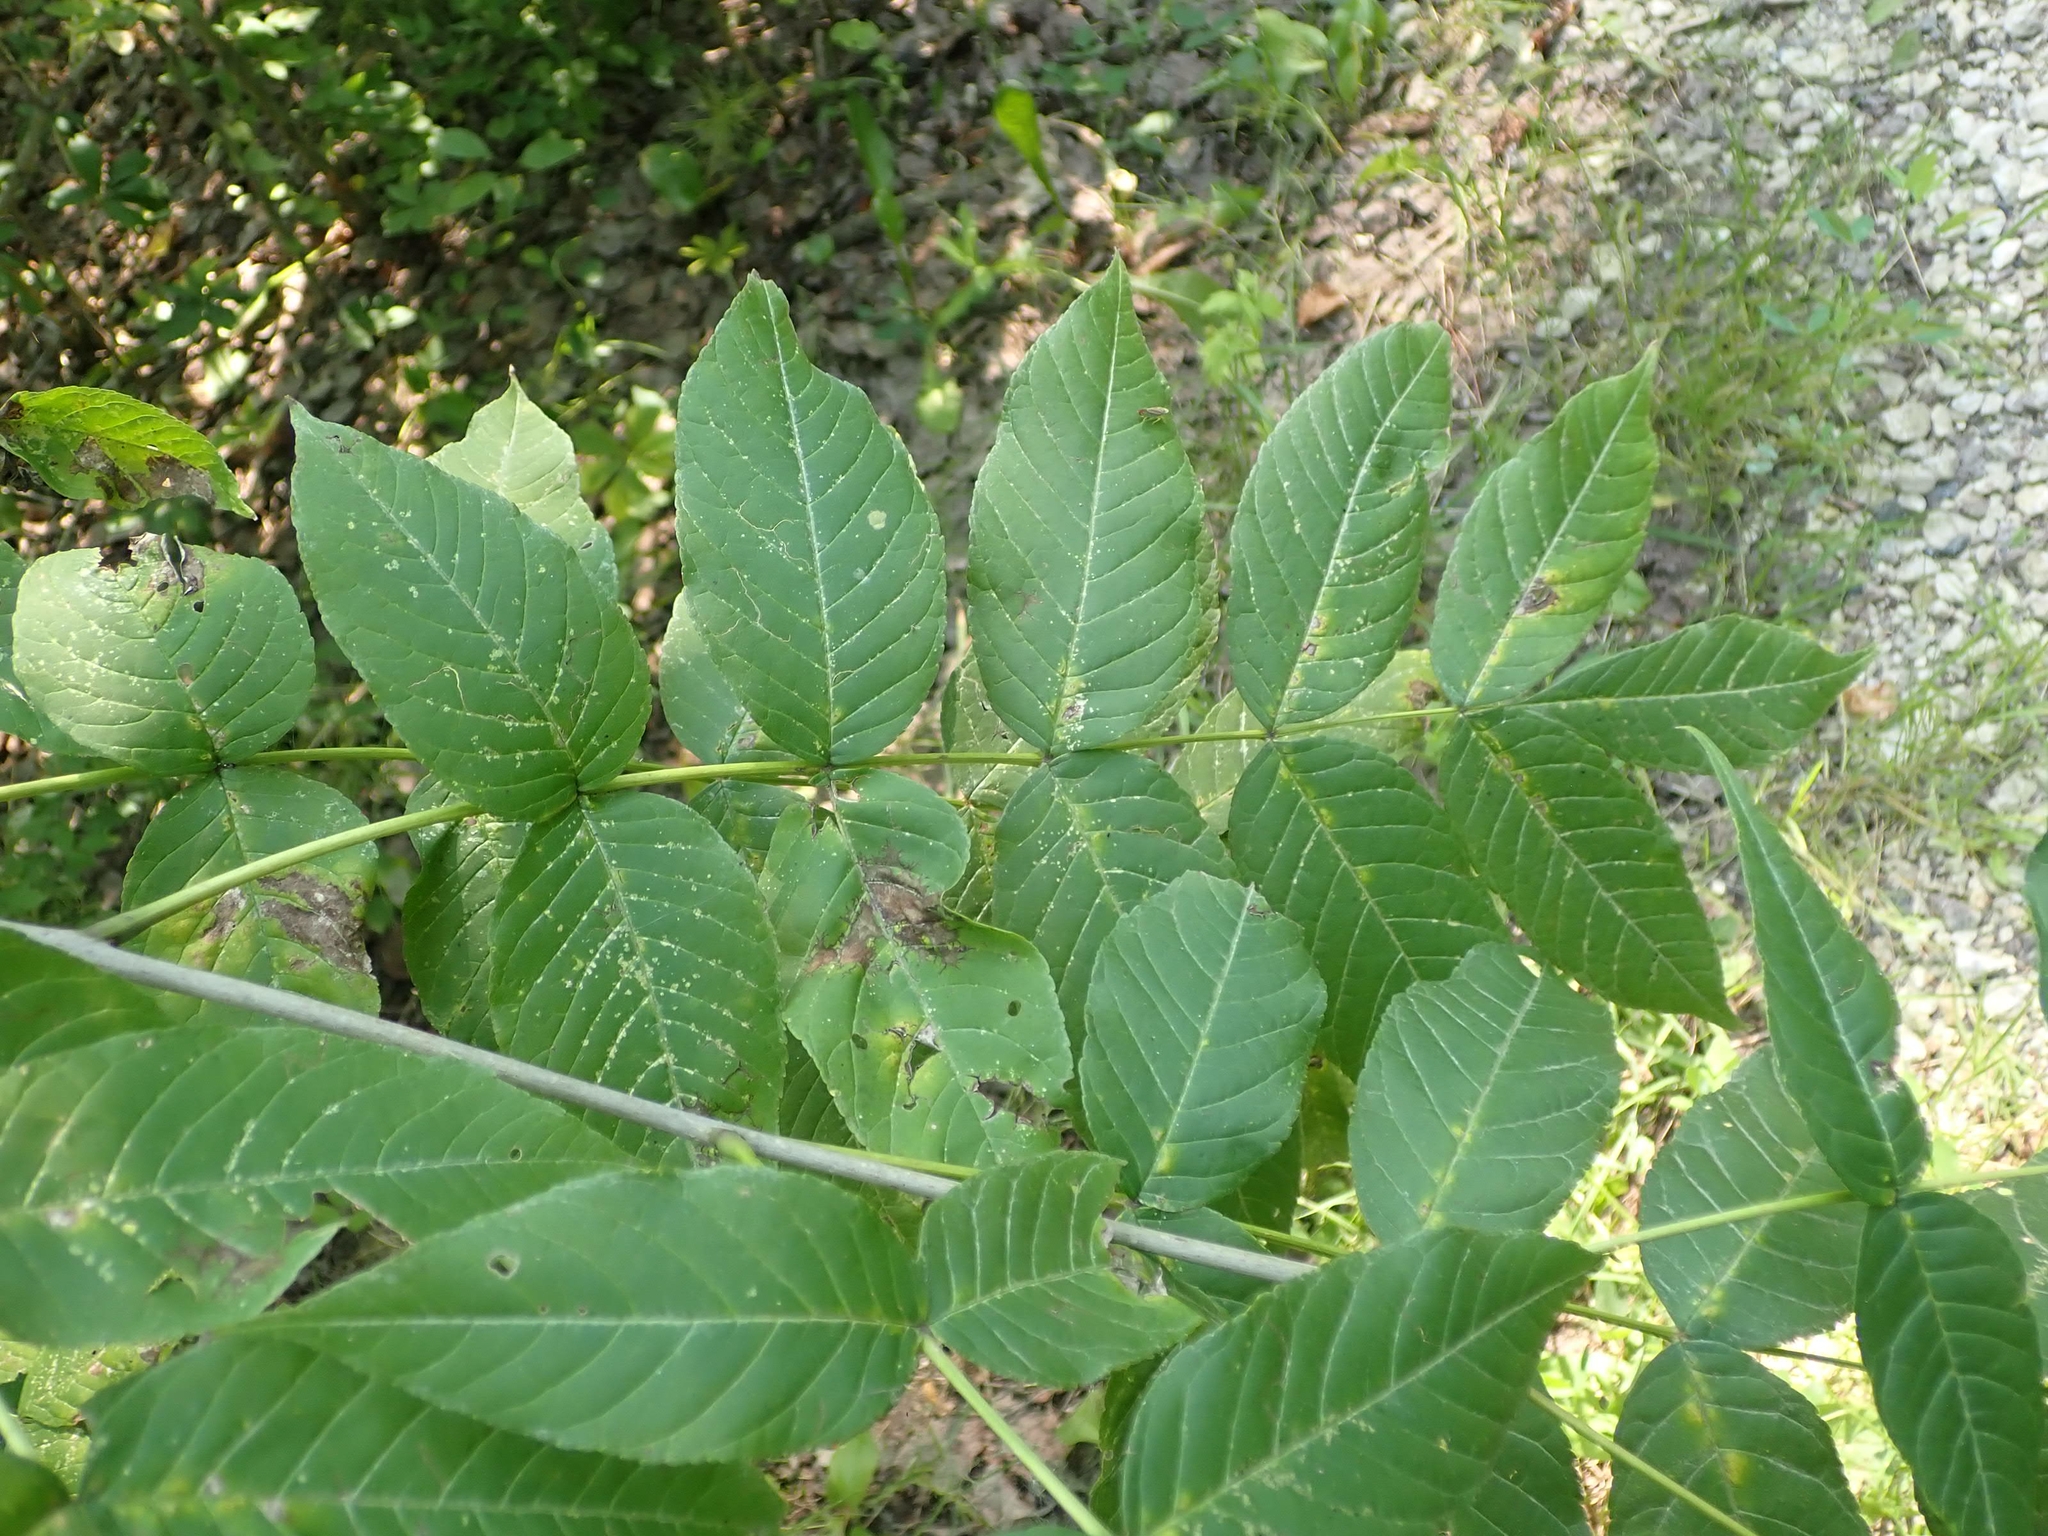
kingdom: Plantae
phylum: Tracheophyta
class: Magnoliopsida
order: Lamiales
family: Oleaceae
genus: Fraxinus
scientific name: Fraxinus nigra
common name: Black ash
